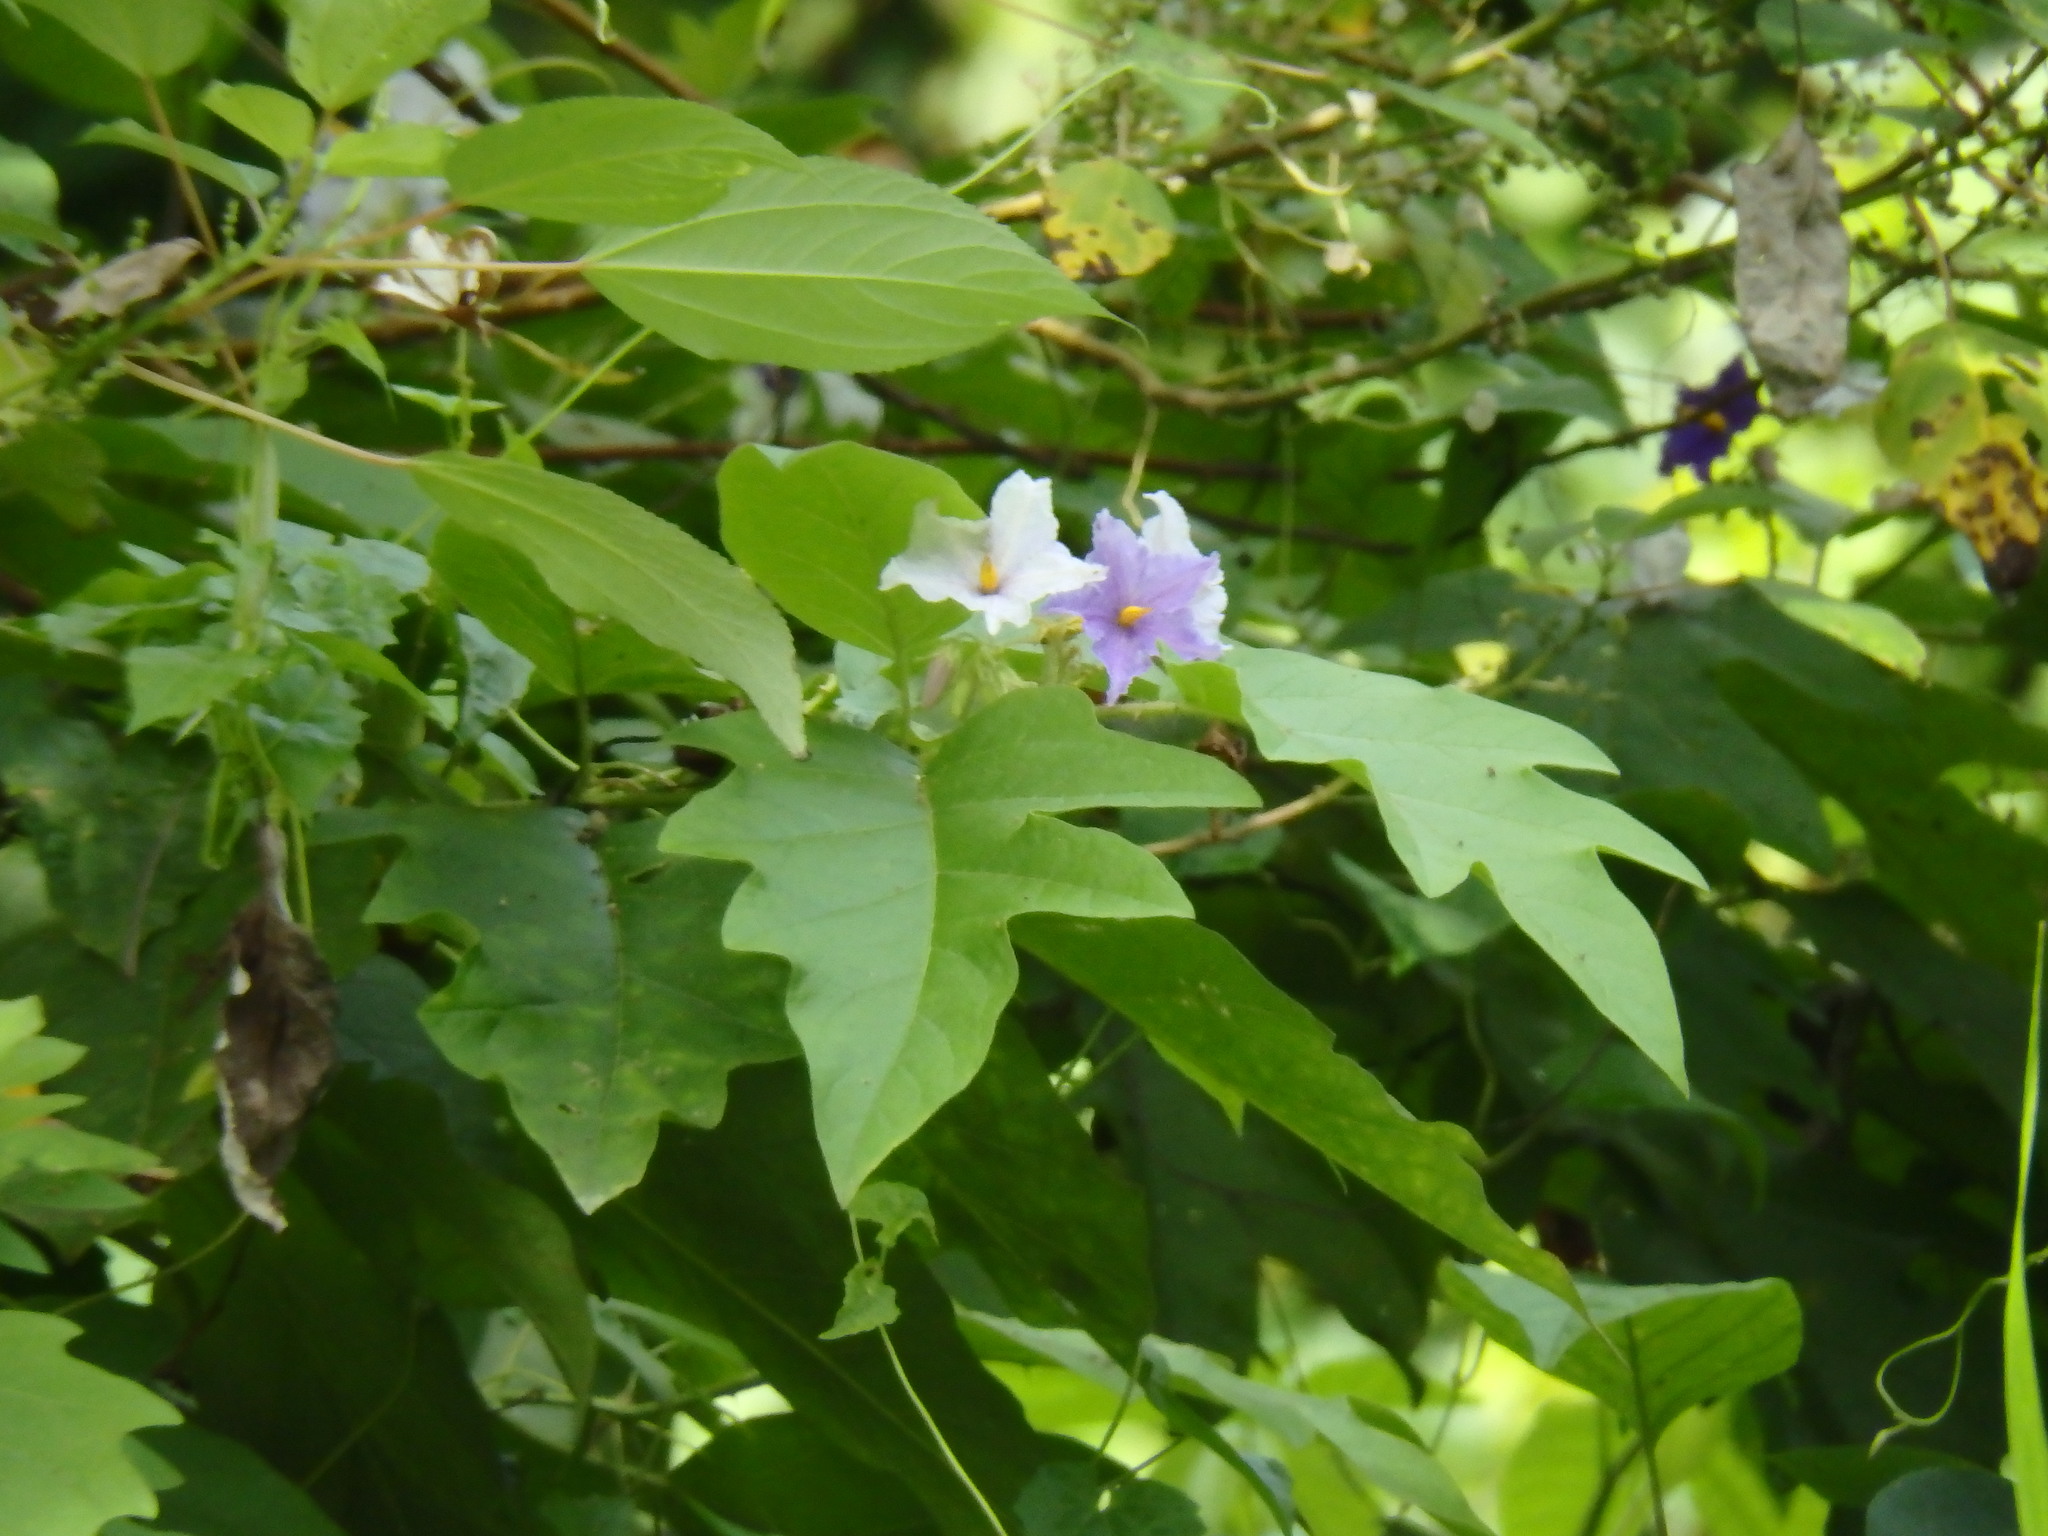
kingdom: Plantae
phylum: Tracheophyta
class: Magnoliopsida
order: Solanales
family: Solanaceae
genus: Solanum
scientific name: Solanum wrightii
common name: Brazilian potato-tree
